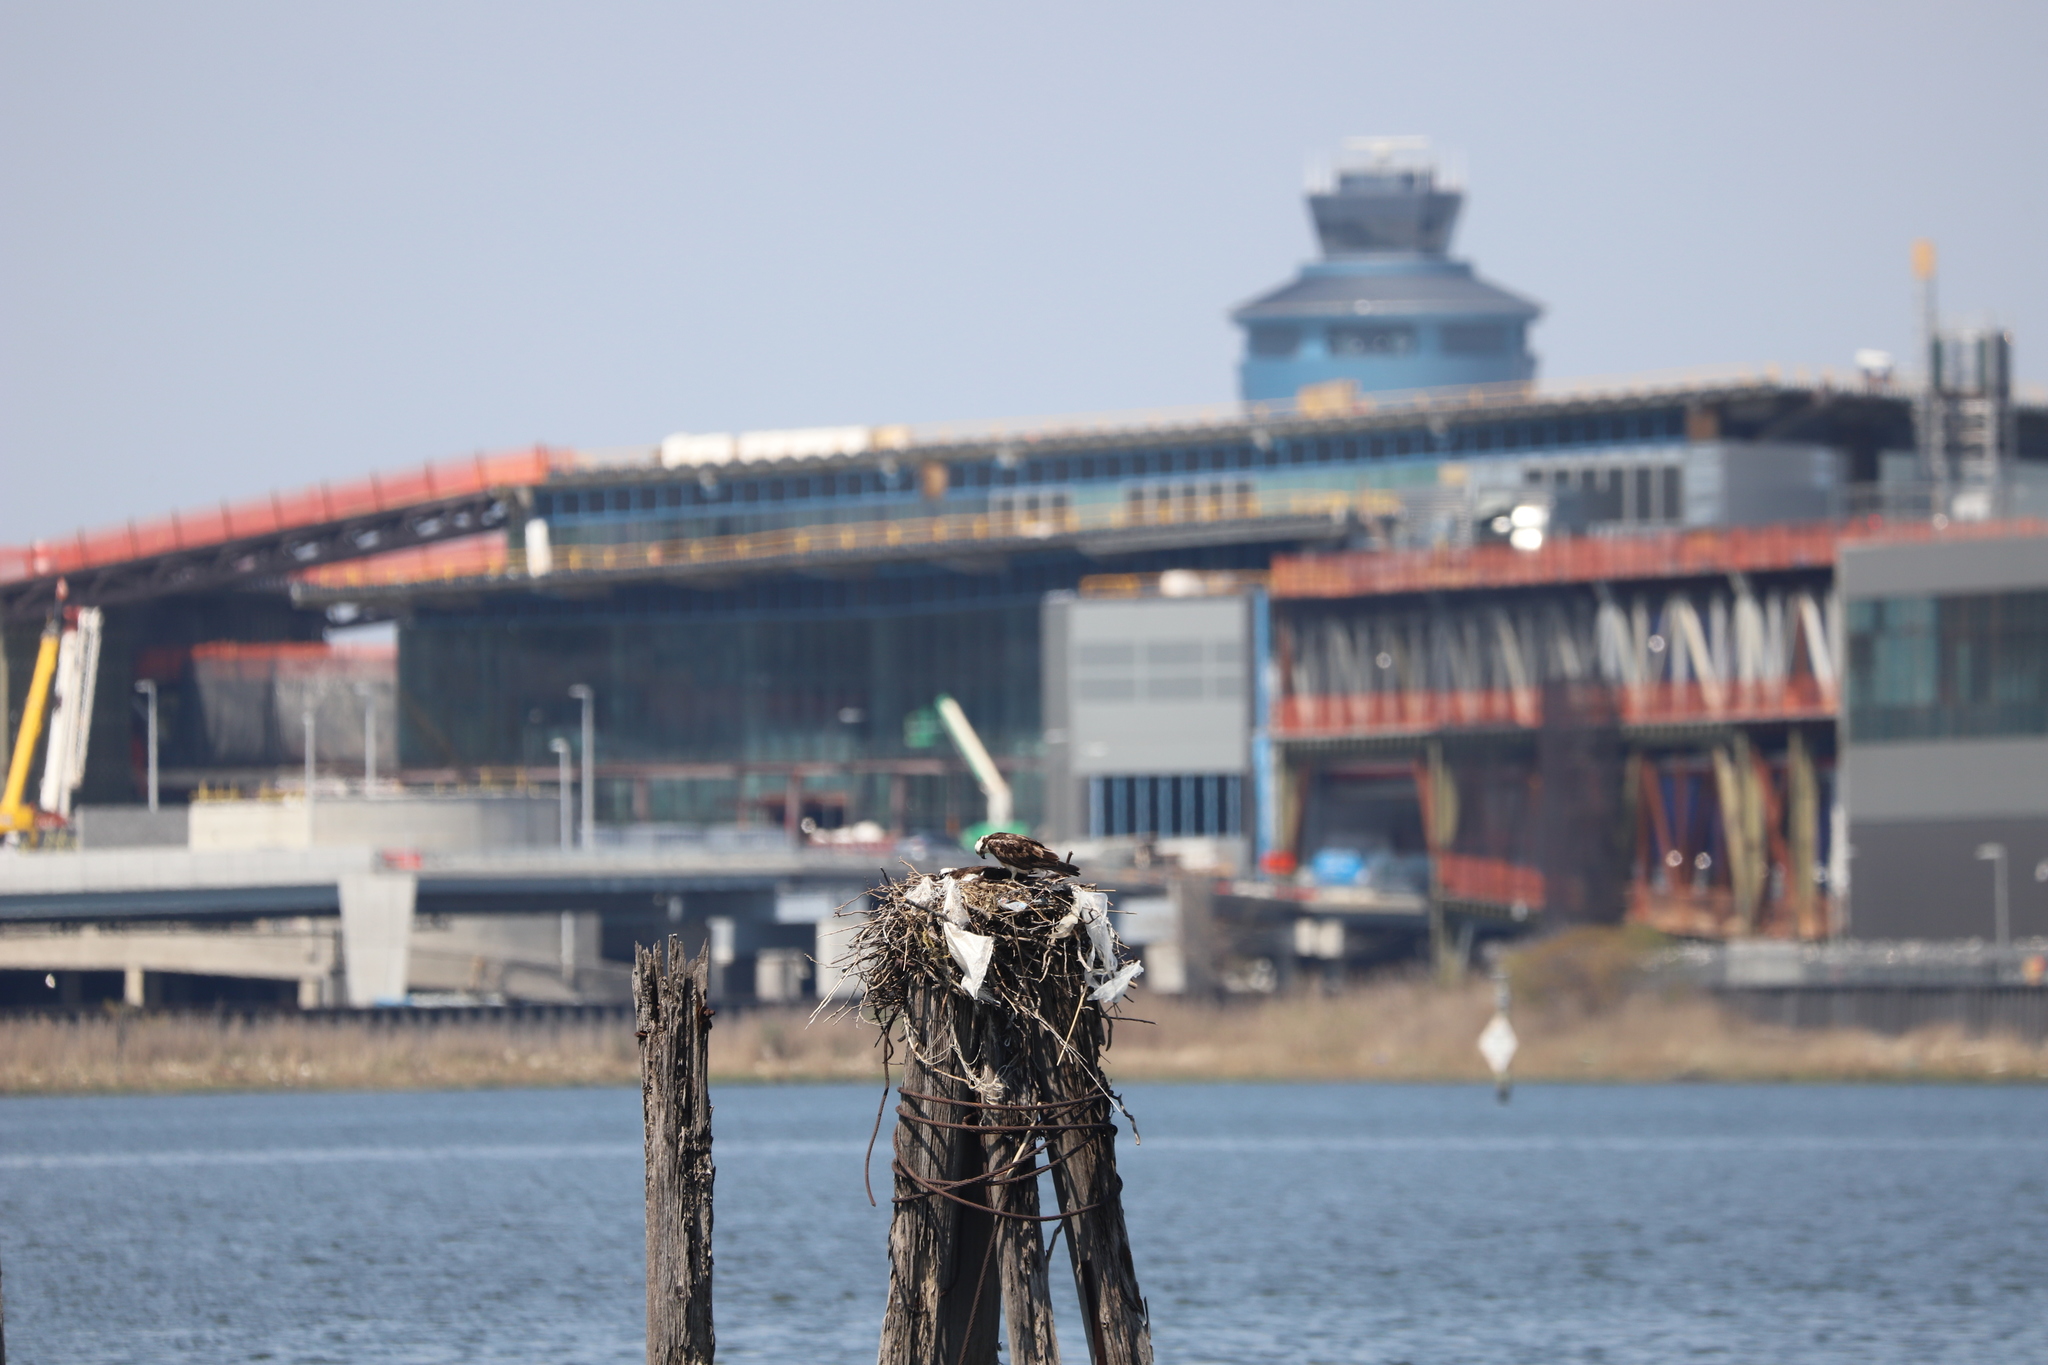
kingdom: Animalia
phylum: Chordata
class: Aves
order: Accipitriformes
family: Pandionidae
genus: Pandion
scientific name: Pandion haliaetus
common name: Osprey
